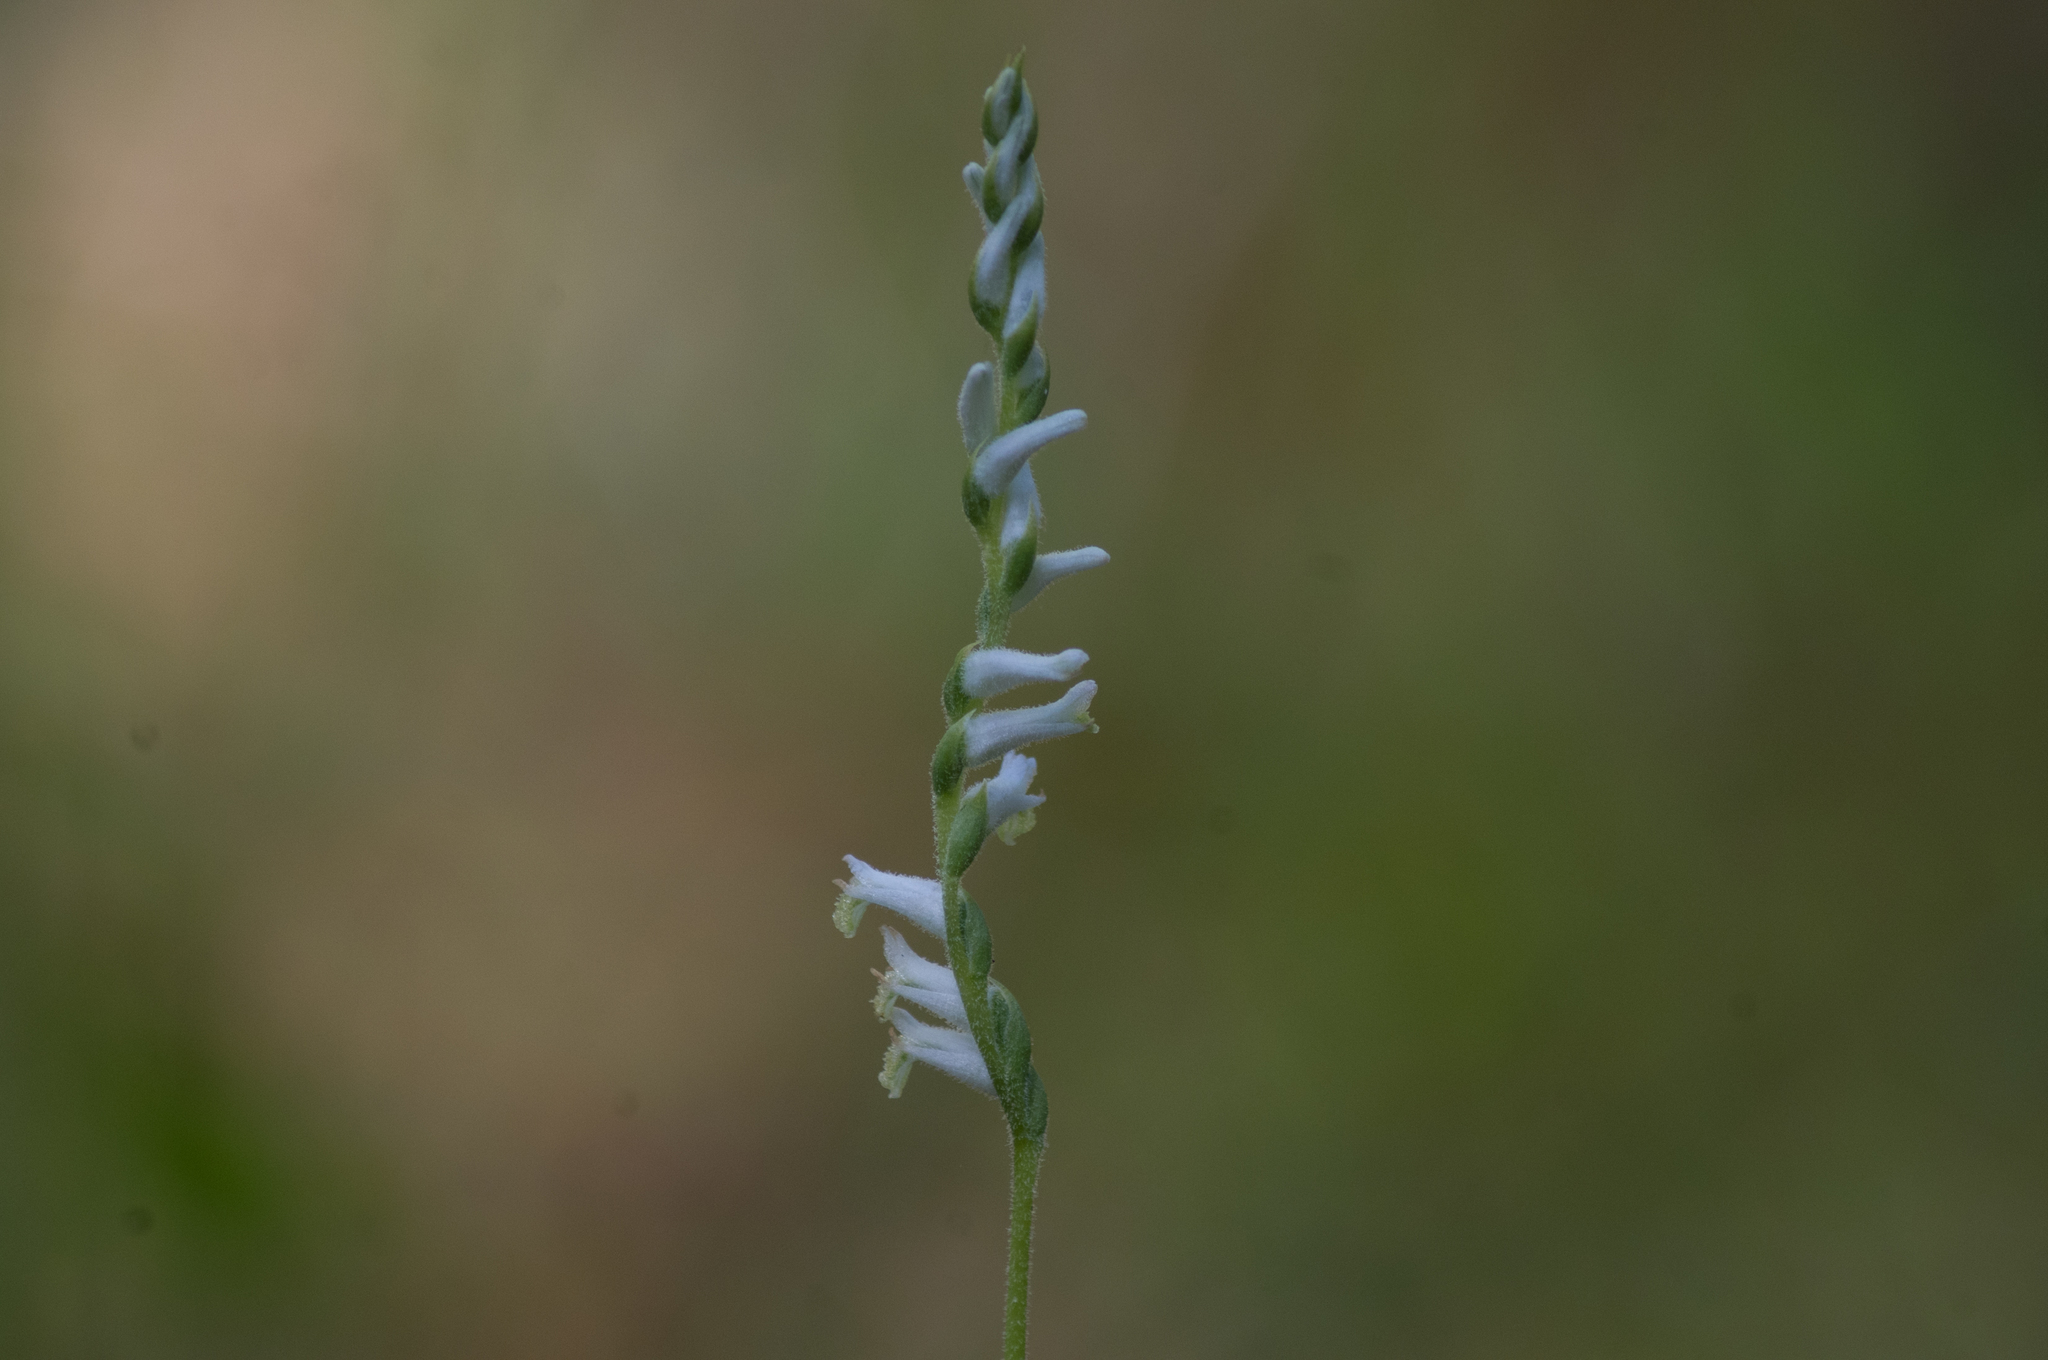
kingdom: Plantae
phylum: Tracheophyta
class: Liliopsida
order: Asparagales
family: Orchidaceae
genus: Spiranthes
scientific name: Spiranthes praecox
